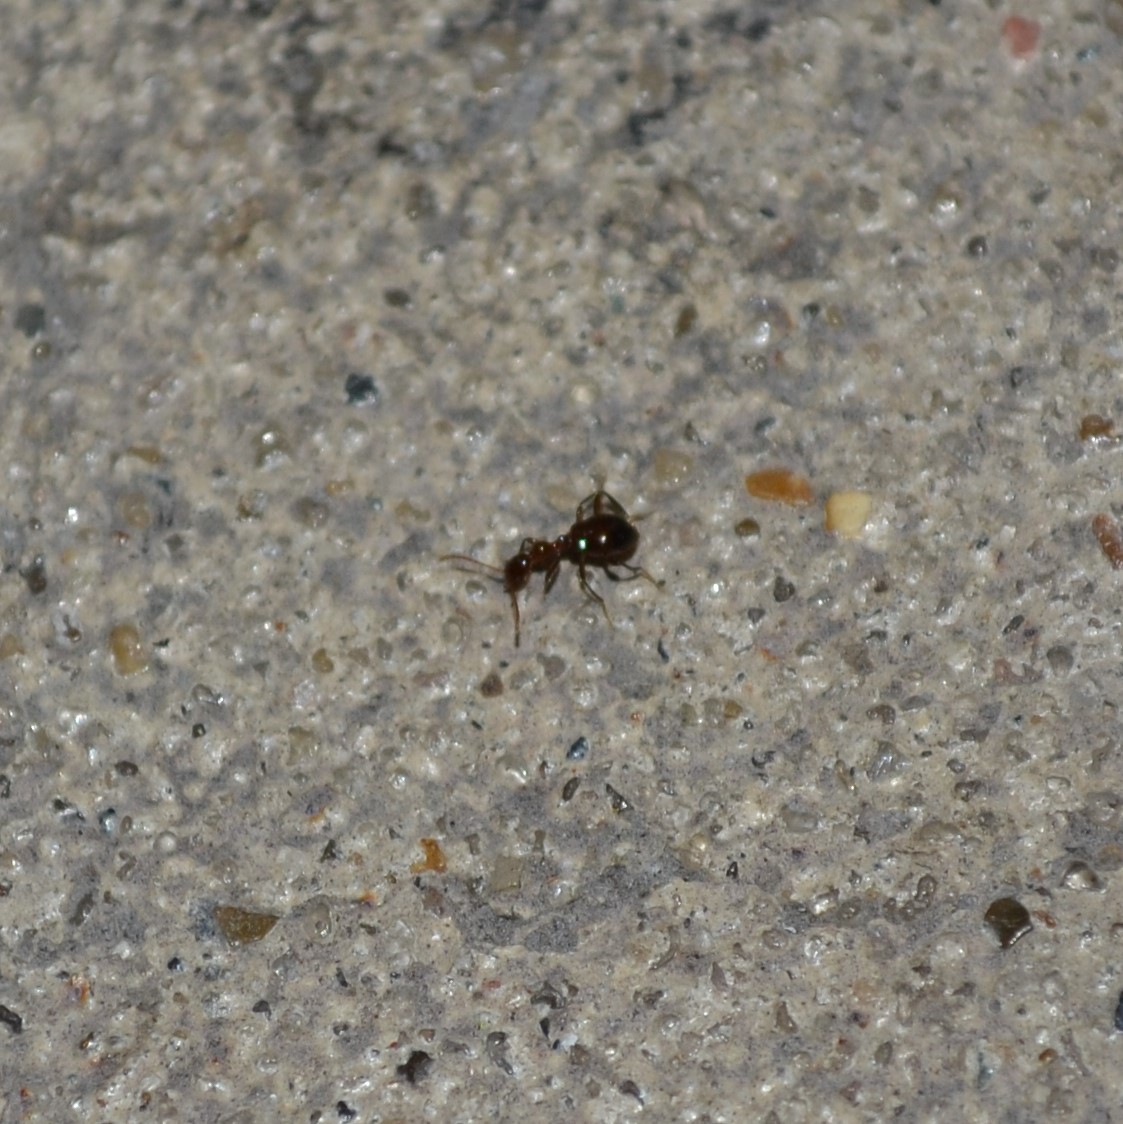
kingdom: Animalia
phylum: Arthropoda
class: Insecta
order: Coleoptera
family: Anthicidae
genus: Acanthinus
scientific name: Acanthinus
